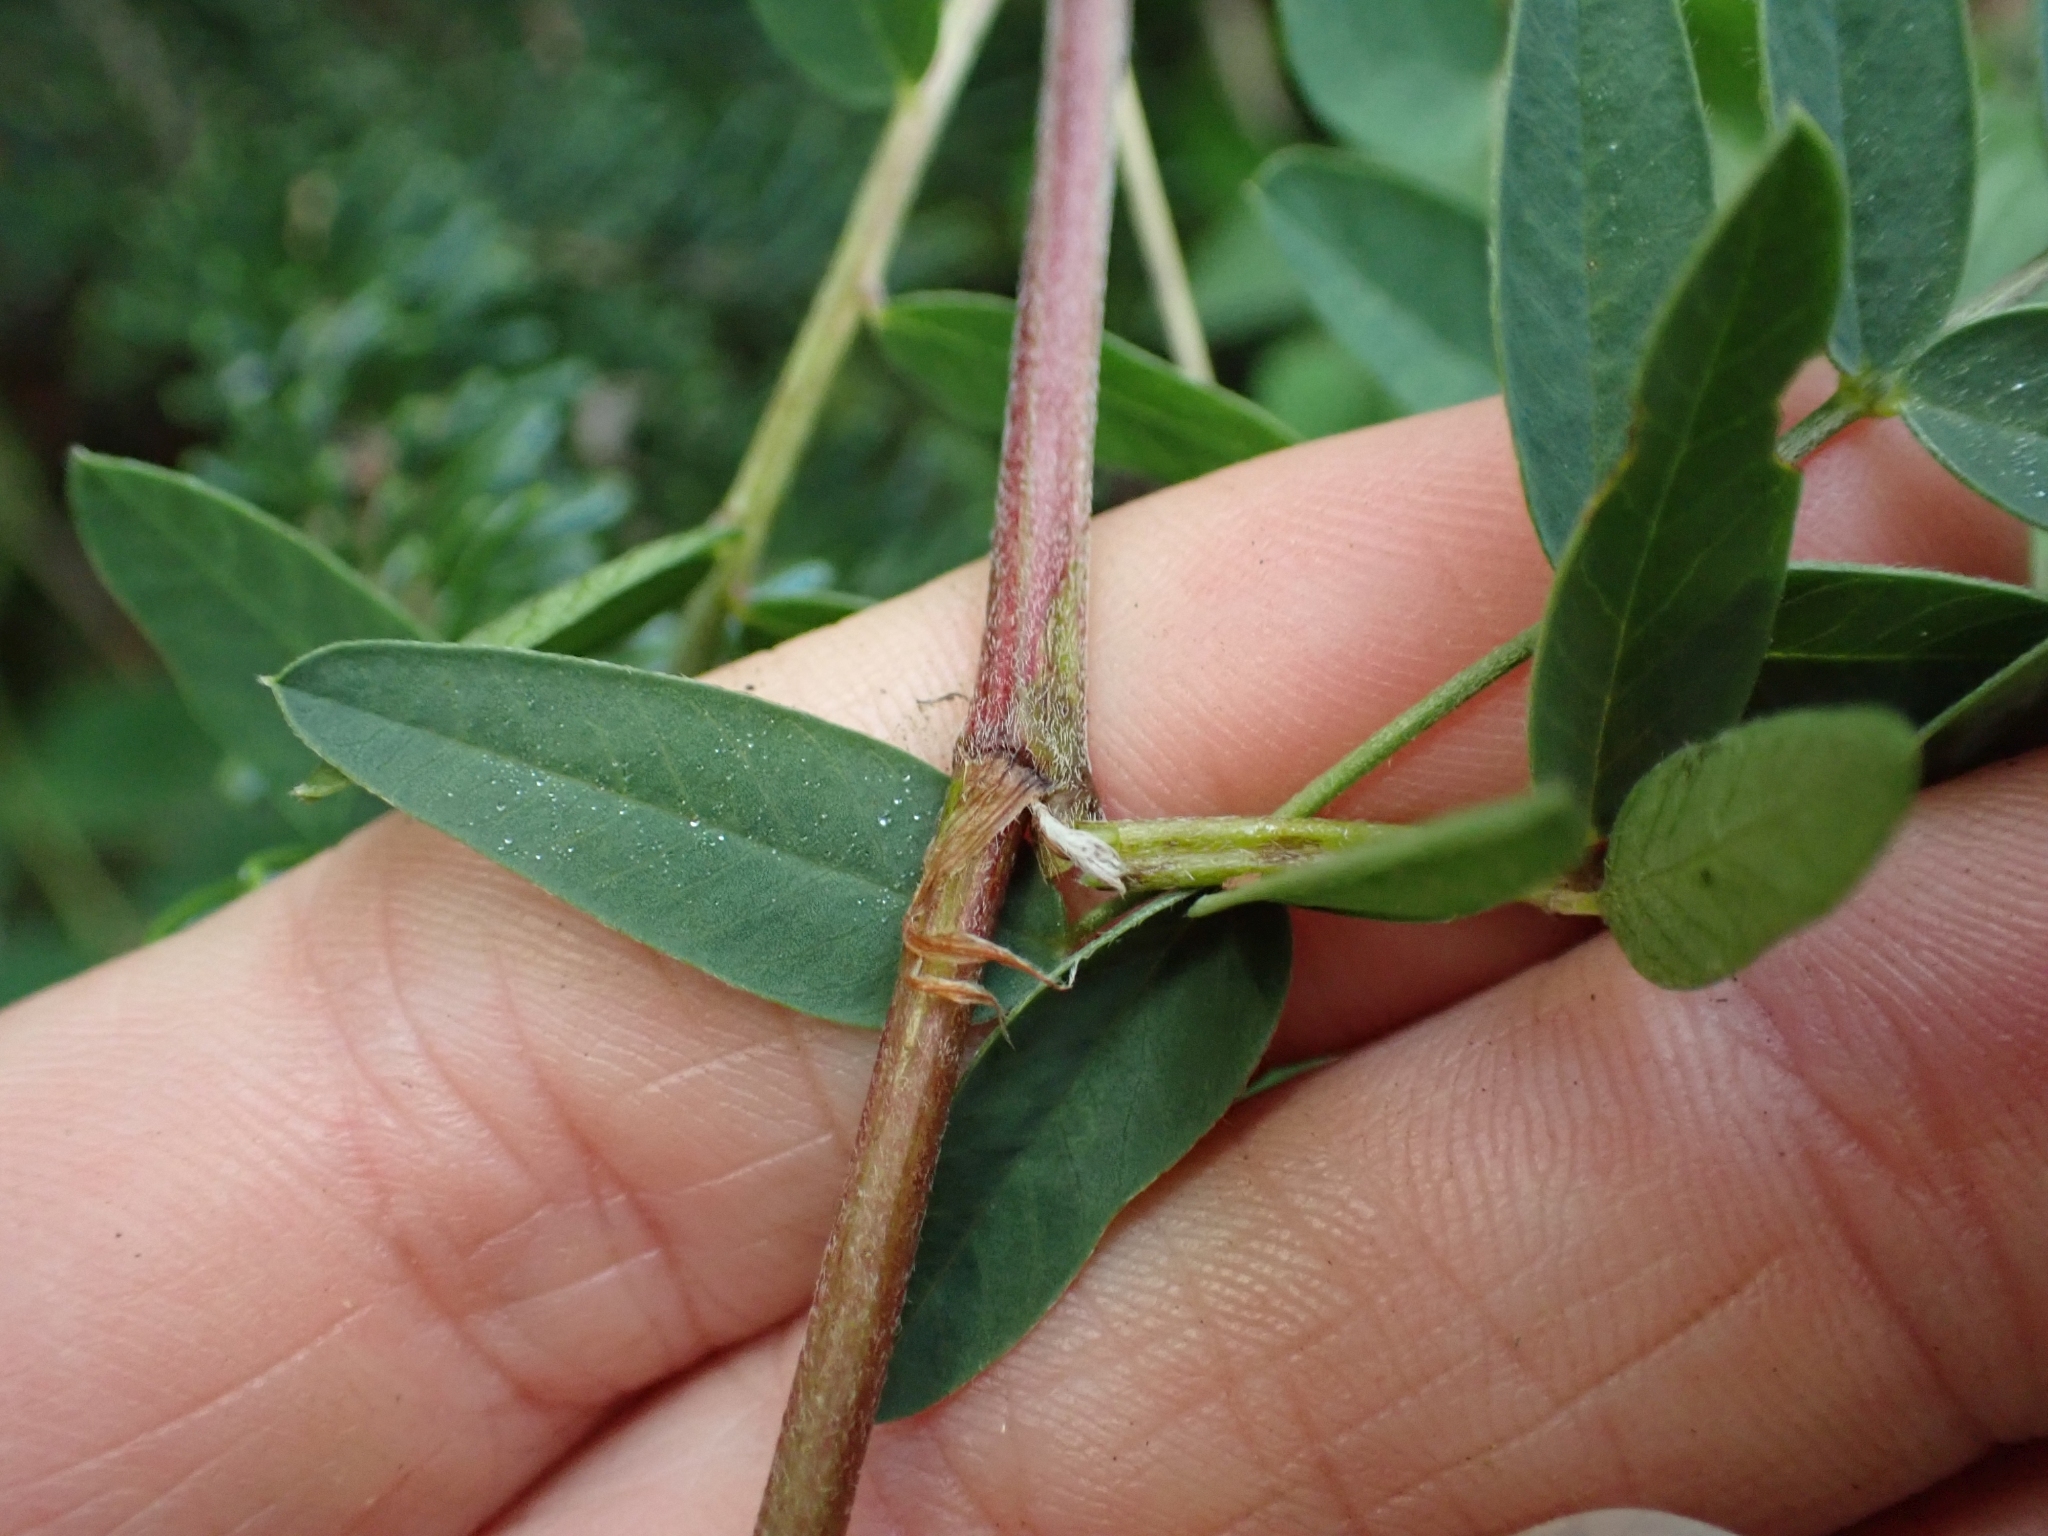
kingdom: Plantae
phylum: Tracheophyta
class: Magnoliopsida
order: Fabales
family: Fabaceae
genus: Hedysarum
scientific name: Hedysarum alpinum
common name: Alpine sweet-vetch
